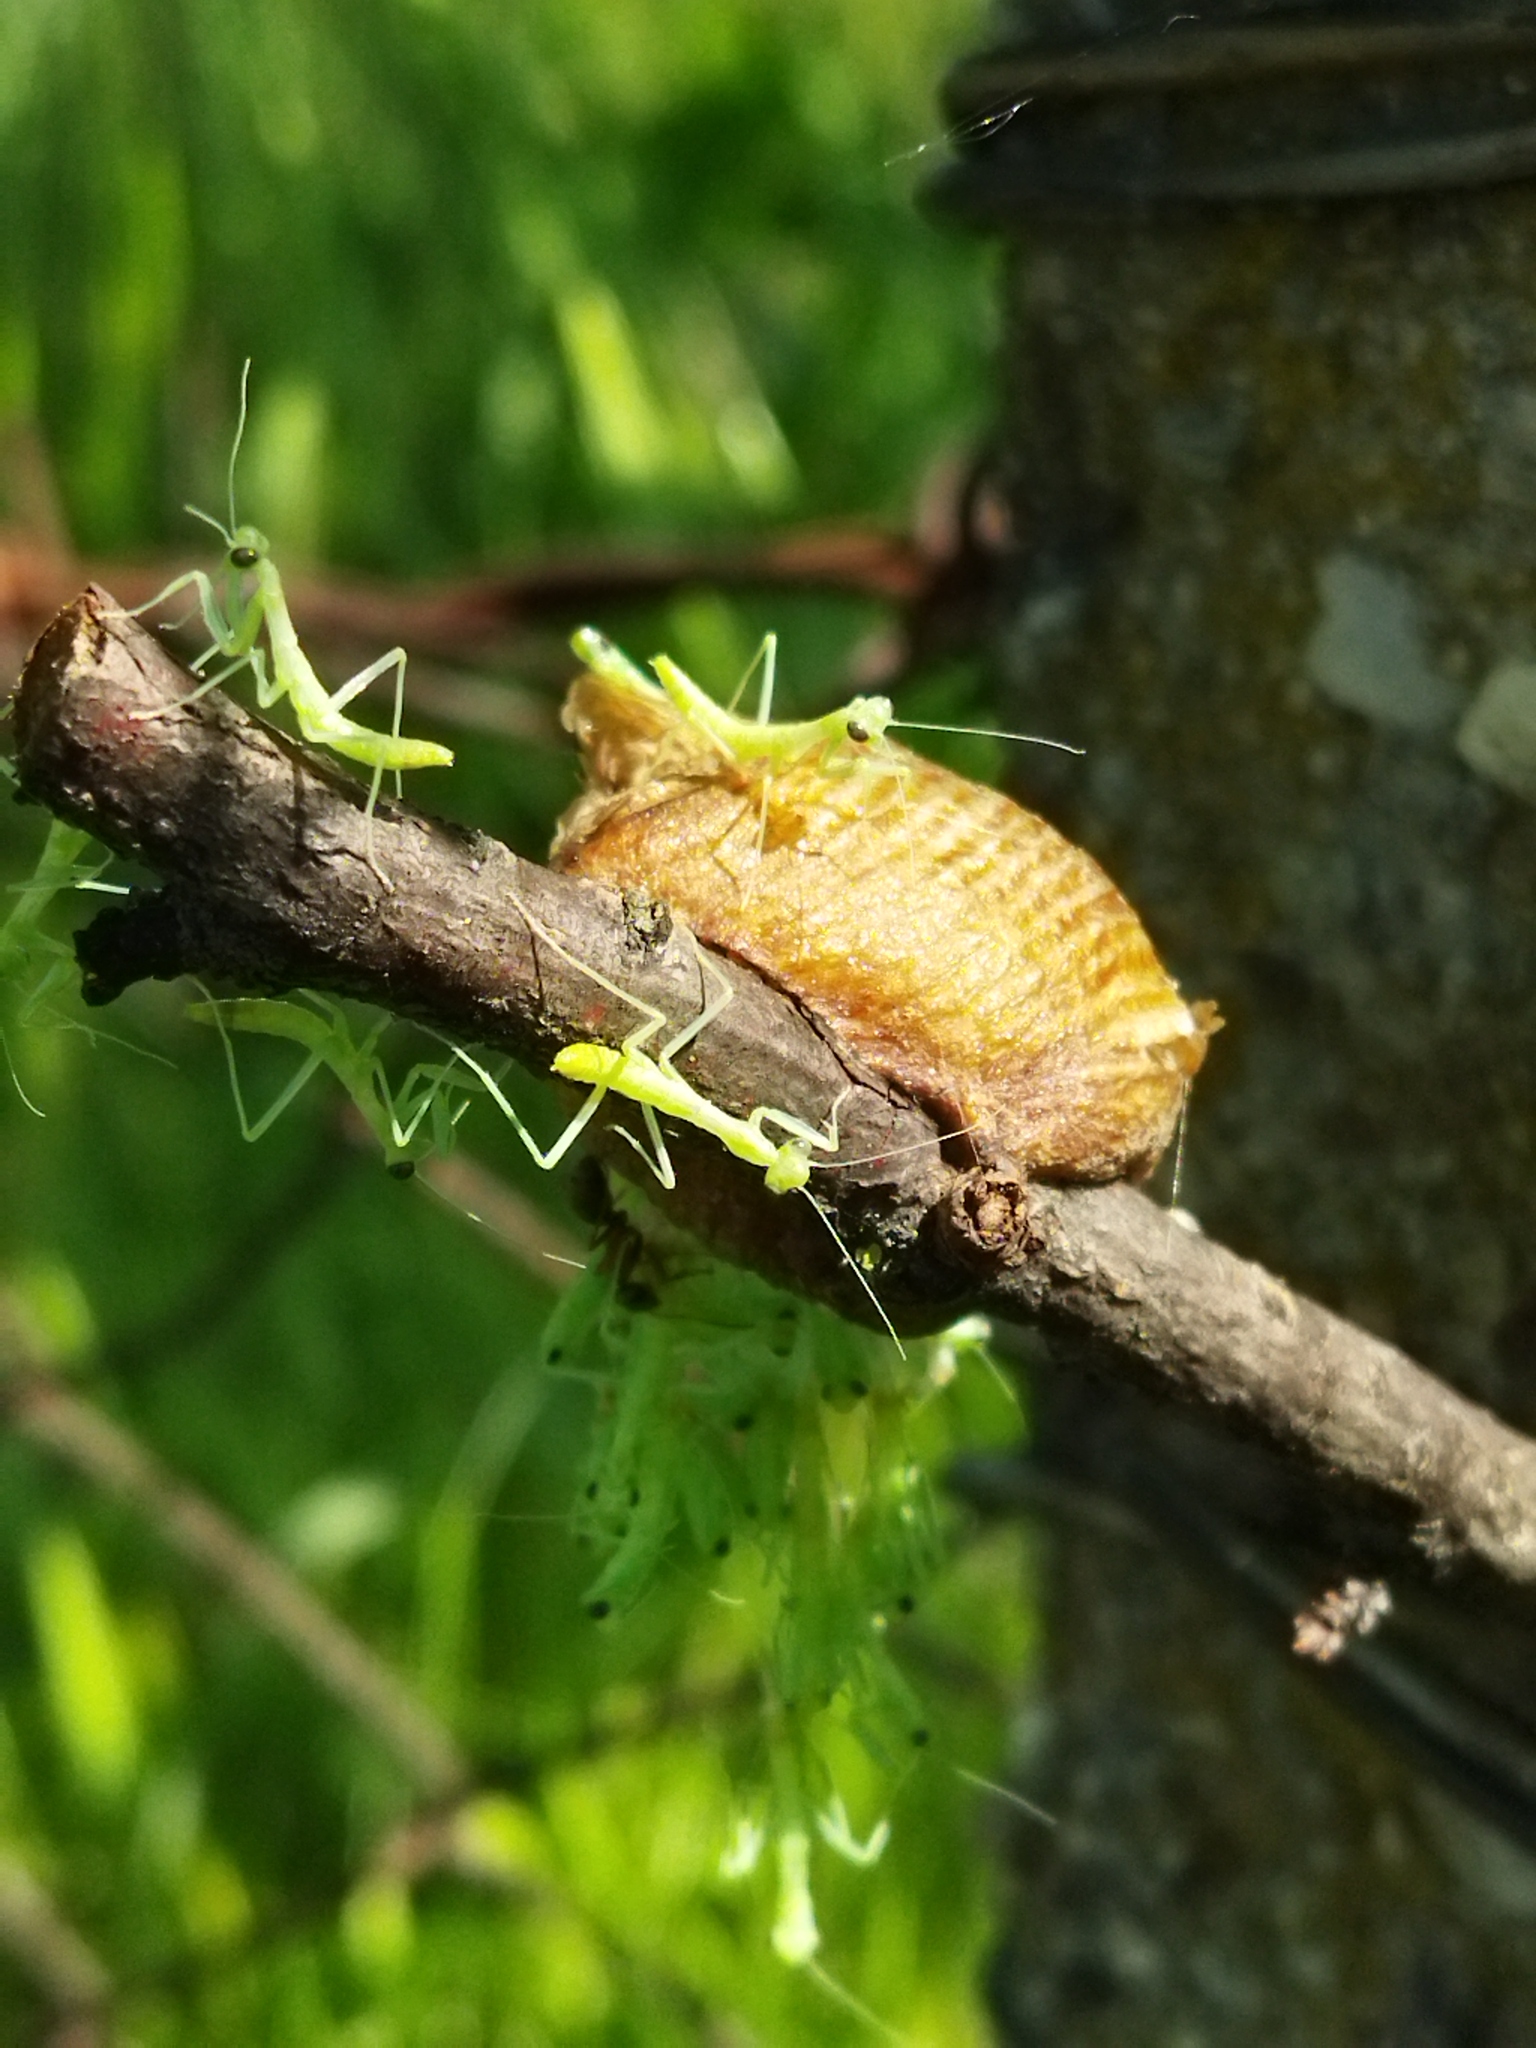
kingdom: Animalia
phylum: Arthropoda
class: Insecta
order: Mantodea
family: Mantidae
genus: Hierodula
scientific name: Hierodula transcaucasica
